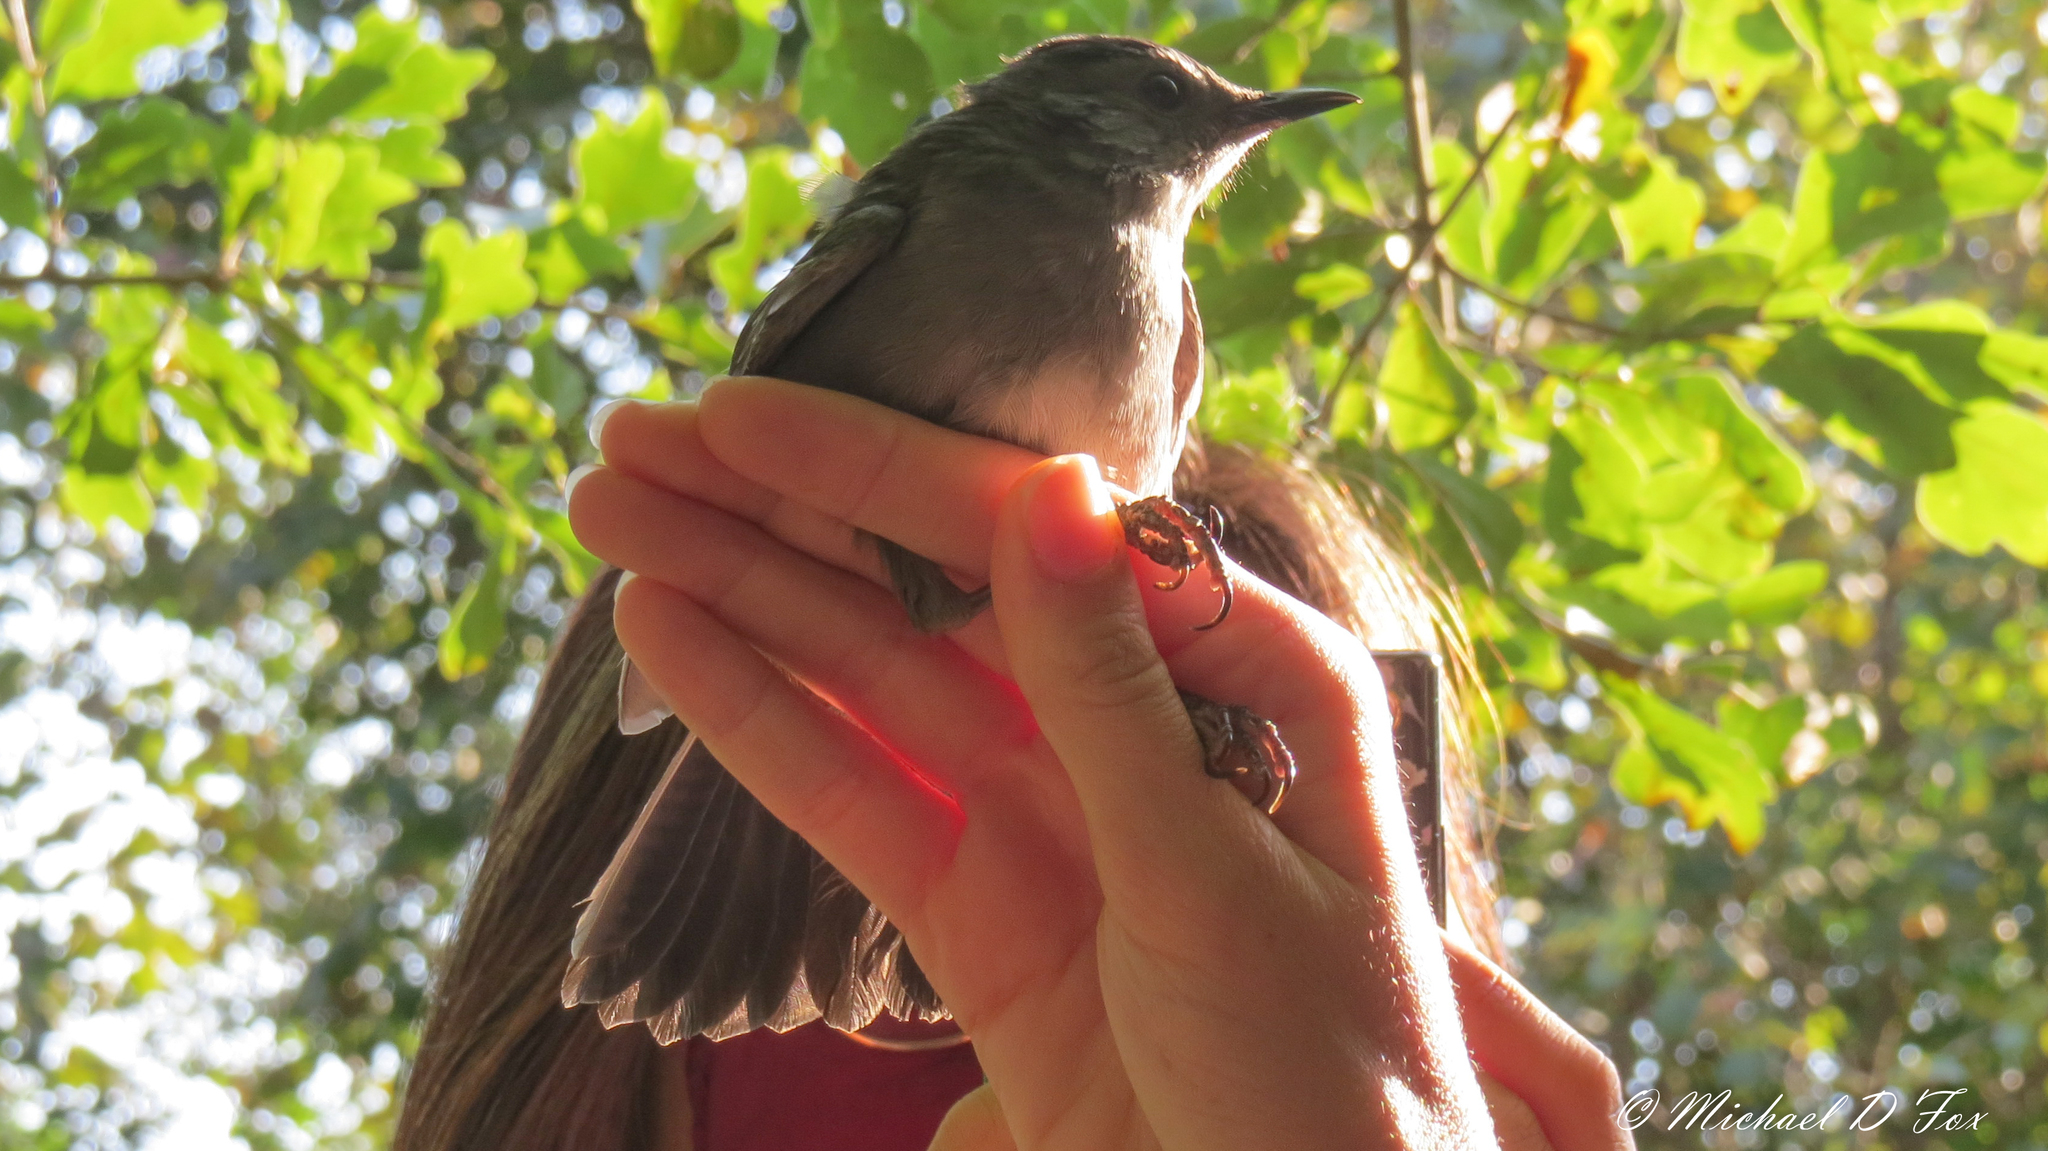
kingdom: Animalia
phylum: Chordata
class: Aves
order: Passeriformes
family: Mimidae
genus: Dumetella
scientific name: Dumetella carolinensis
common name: Gray catbird
